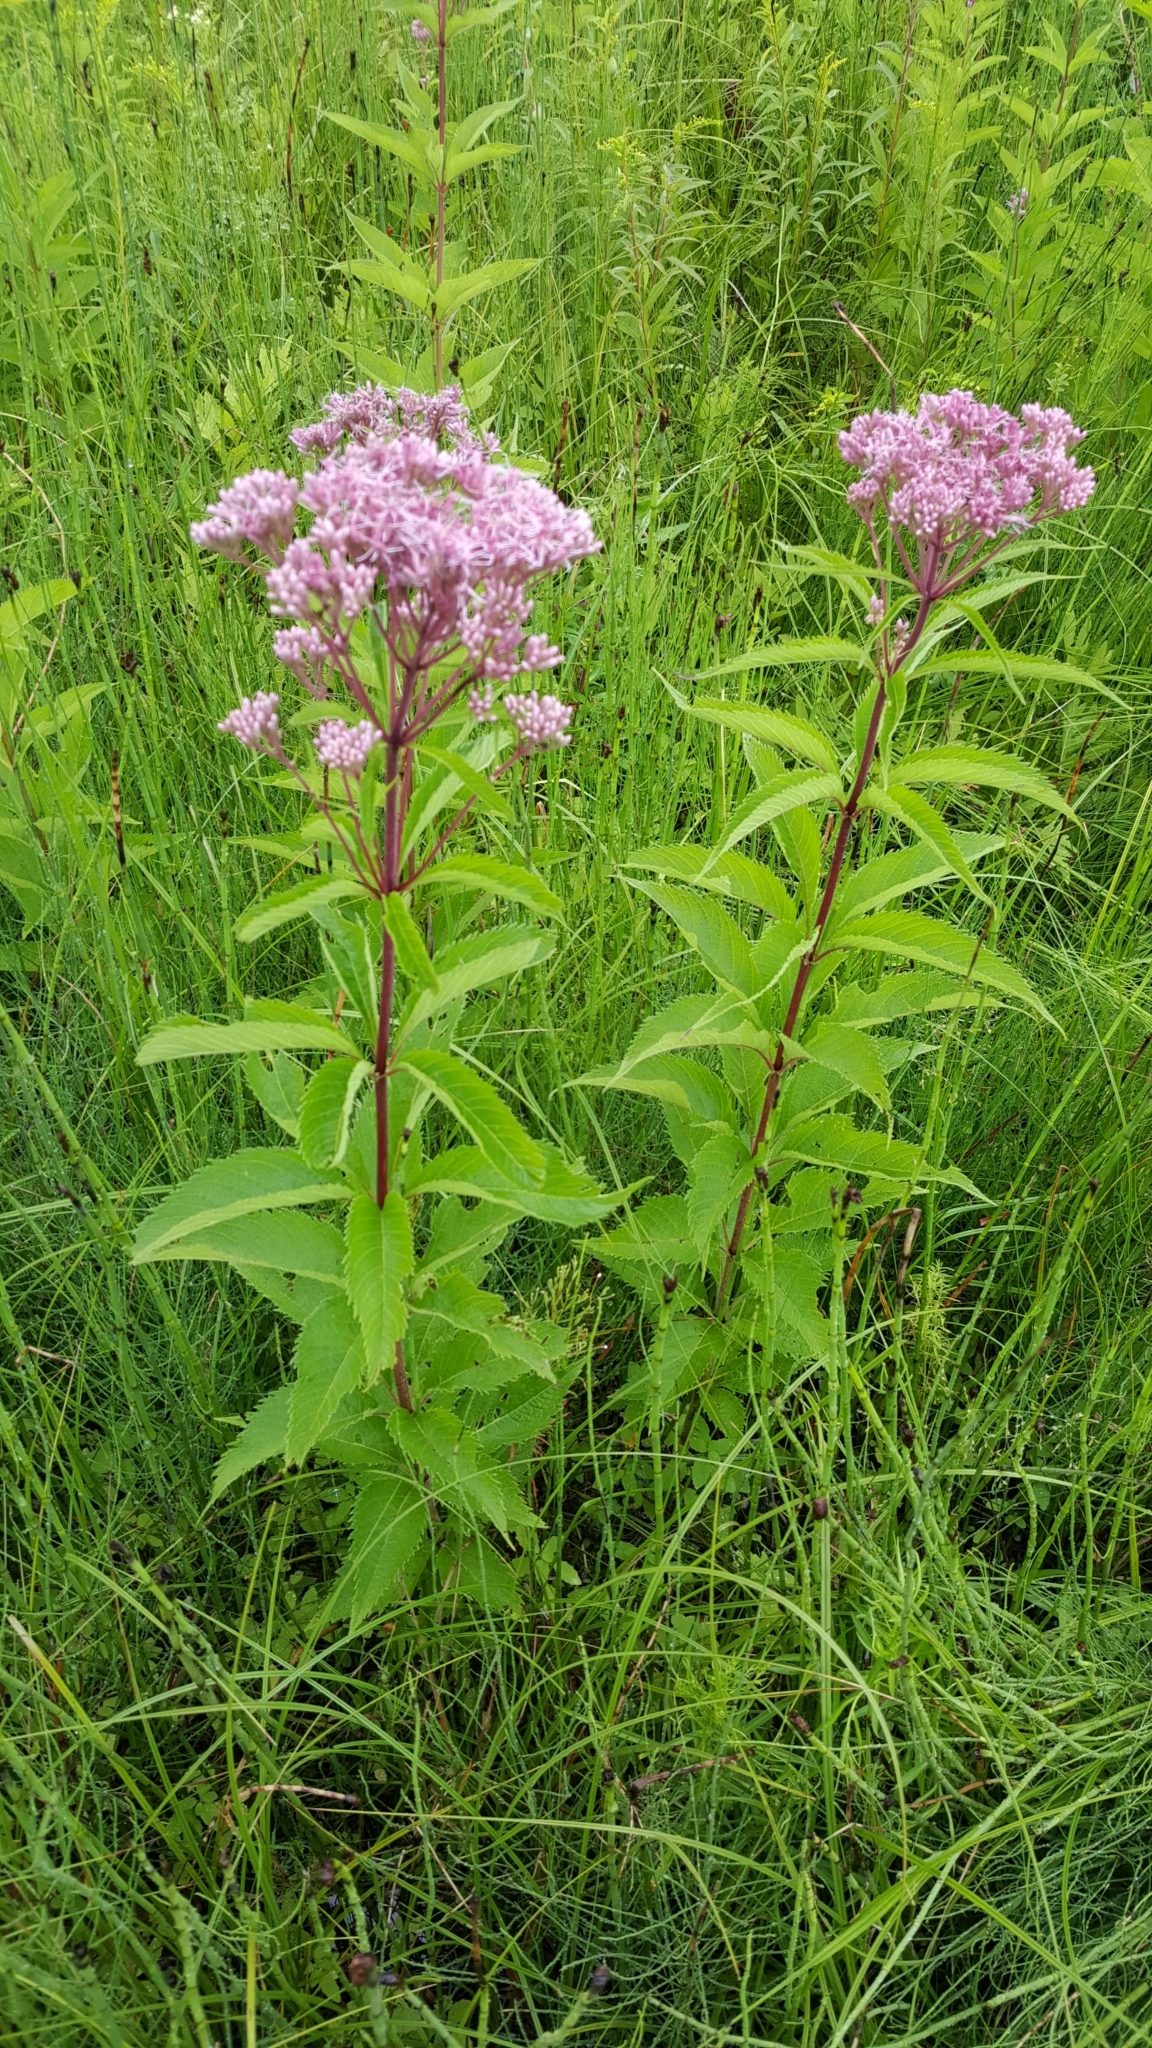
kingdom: Plantae
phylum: Tracheophyta
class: Magnoliopsida
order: Asterales
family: Asteraceae
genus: Eutrochium
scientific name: Eutrochium maculatum
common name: Spotted joe pye weed
